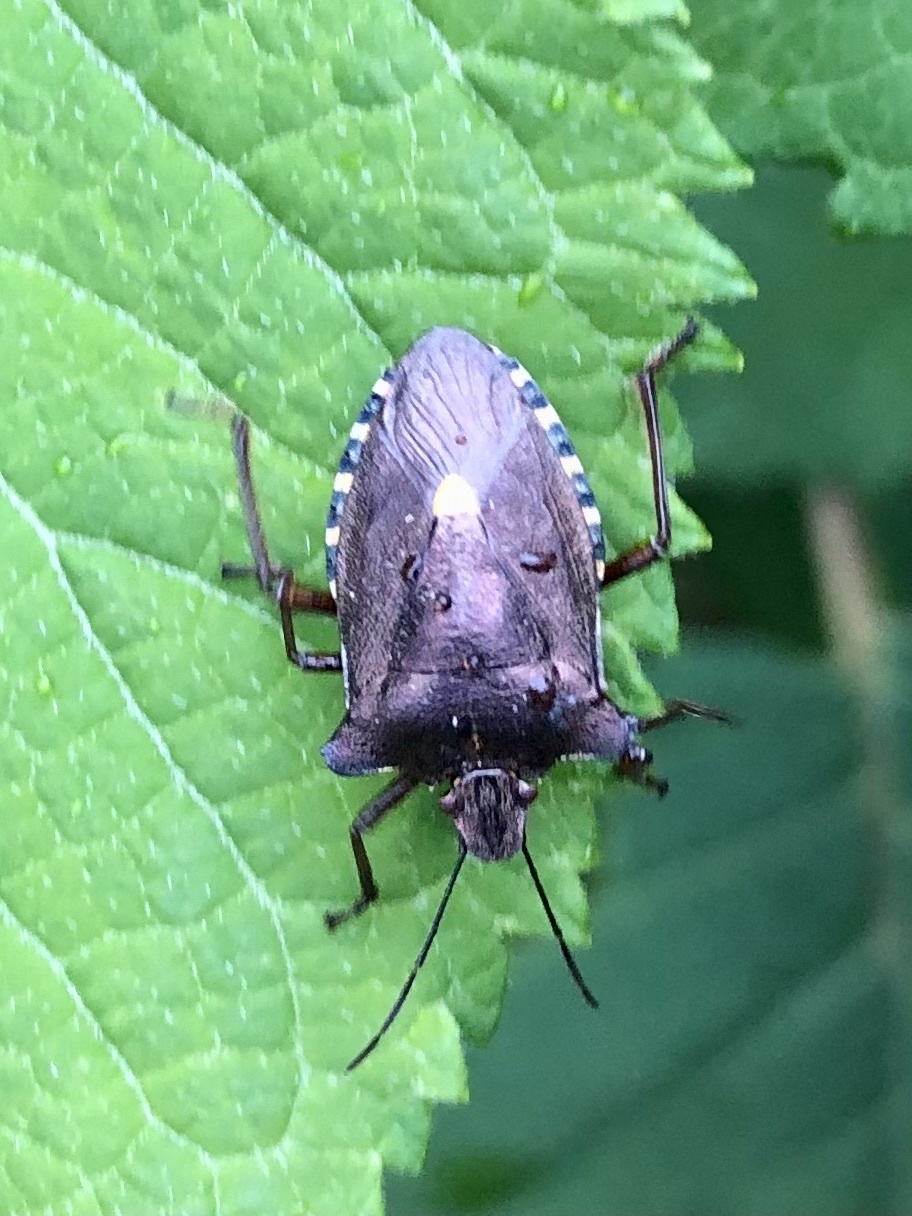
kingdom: Animalia
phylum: Arthropoda
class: Insecta
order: Hemiptera
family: Pentatomidae
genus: Pentatoma
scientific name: Pentatoma rufipes
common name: Forest bug
